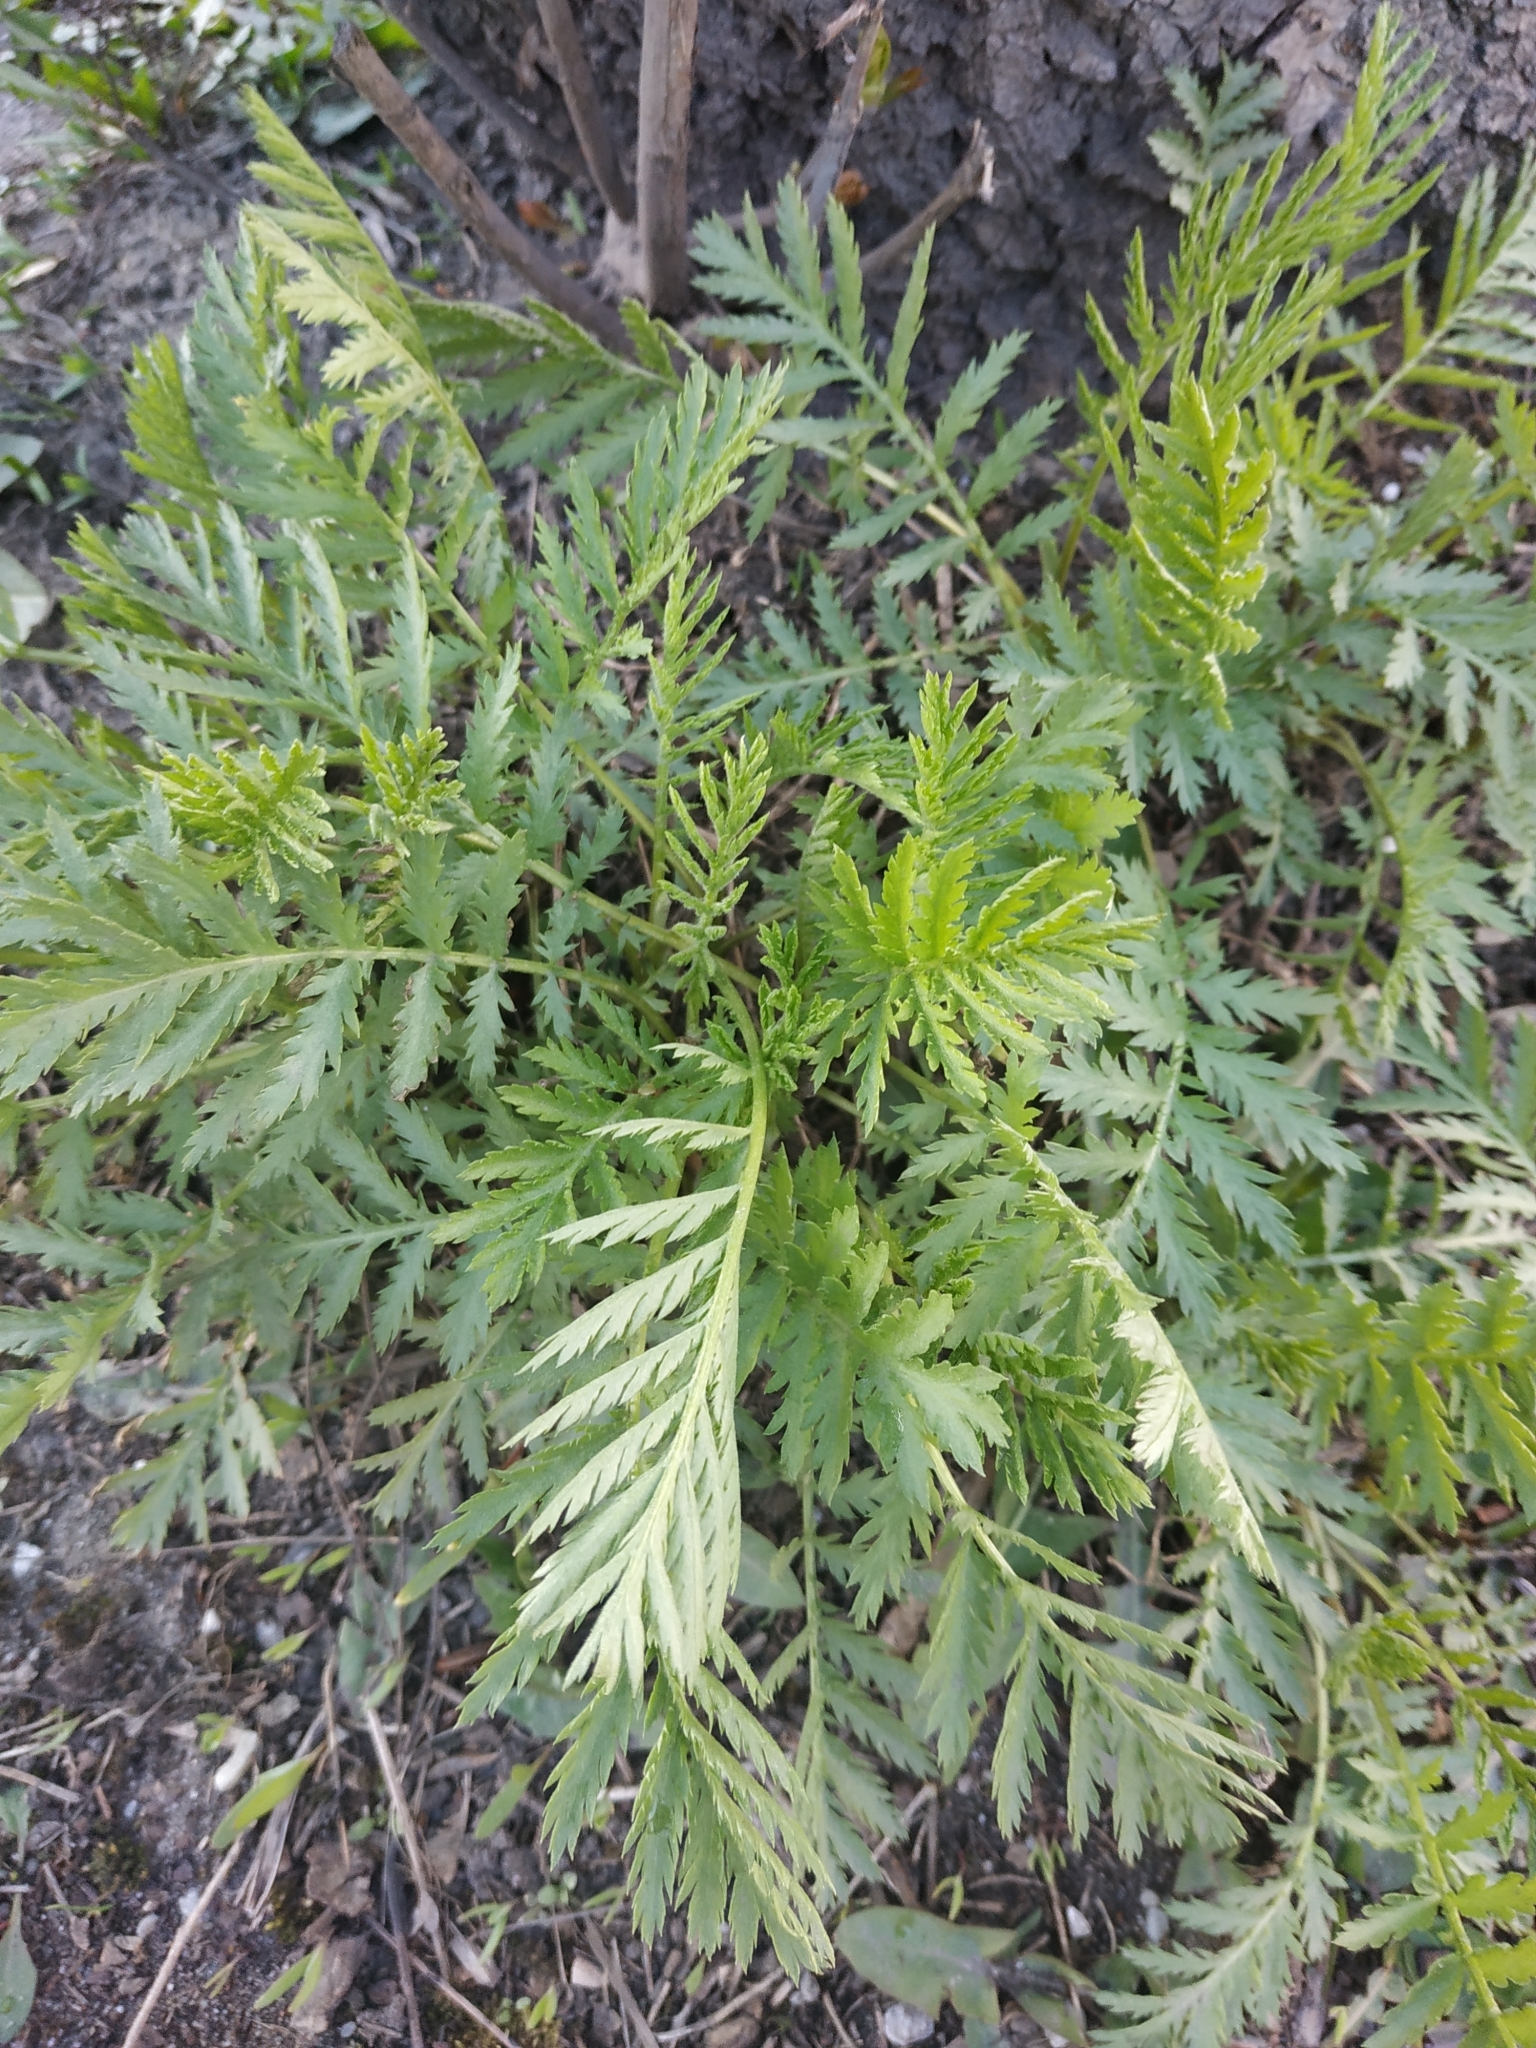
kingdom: Plantae
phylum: Tracheophyta
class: Magnoliopsida
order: Asterales
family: Asteraceae
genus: Tanacetum
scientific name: Tanacetum vulgare
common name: Common tansy
